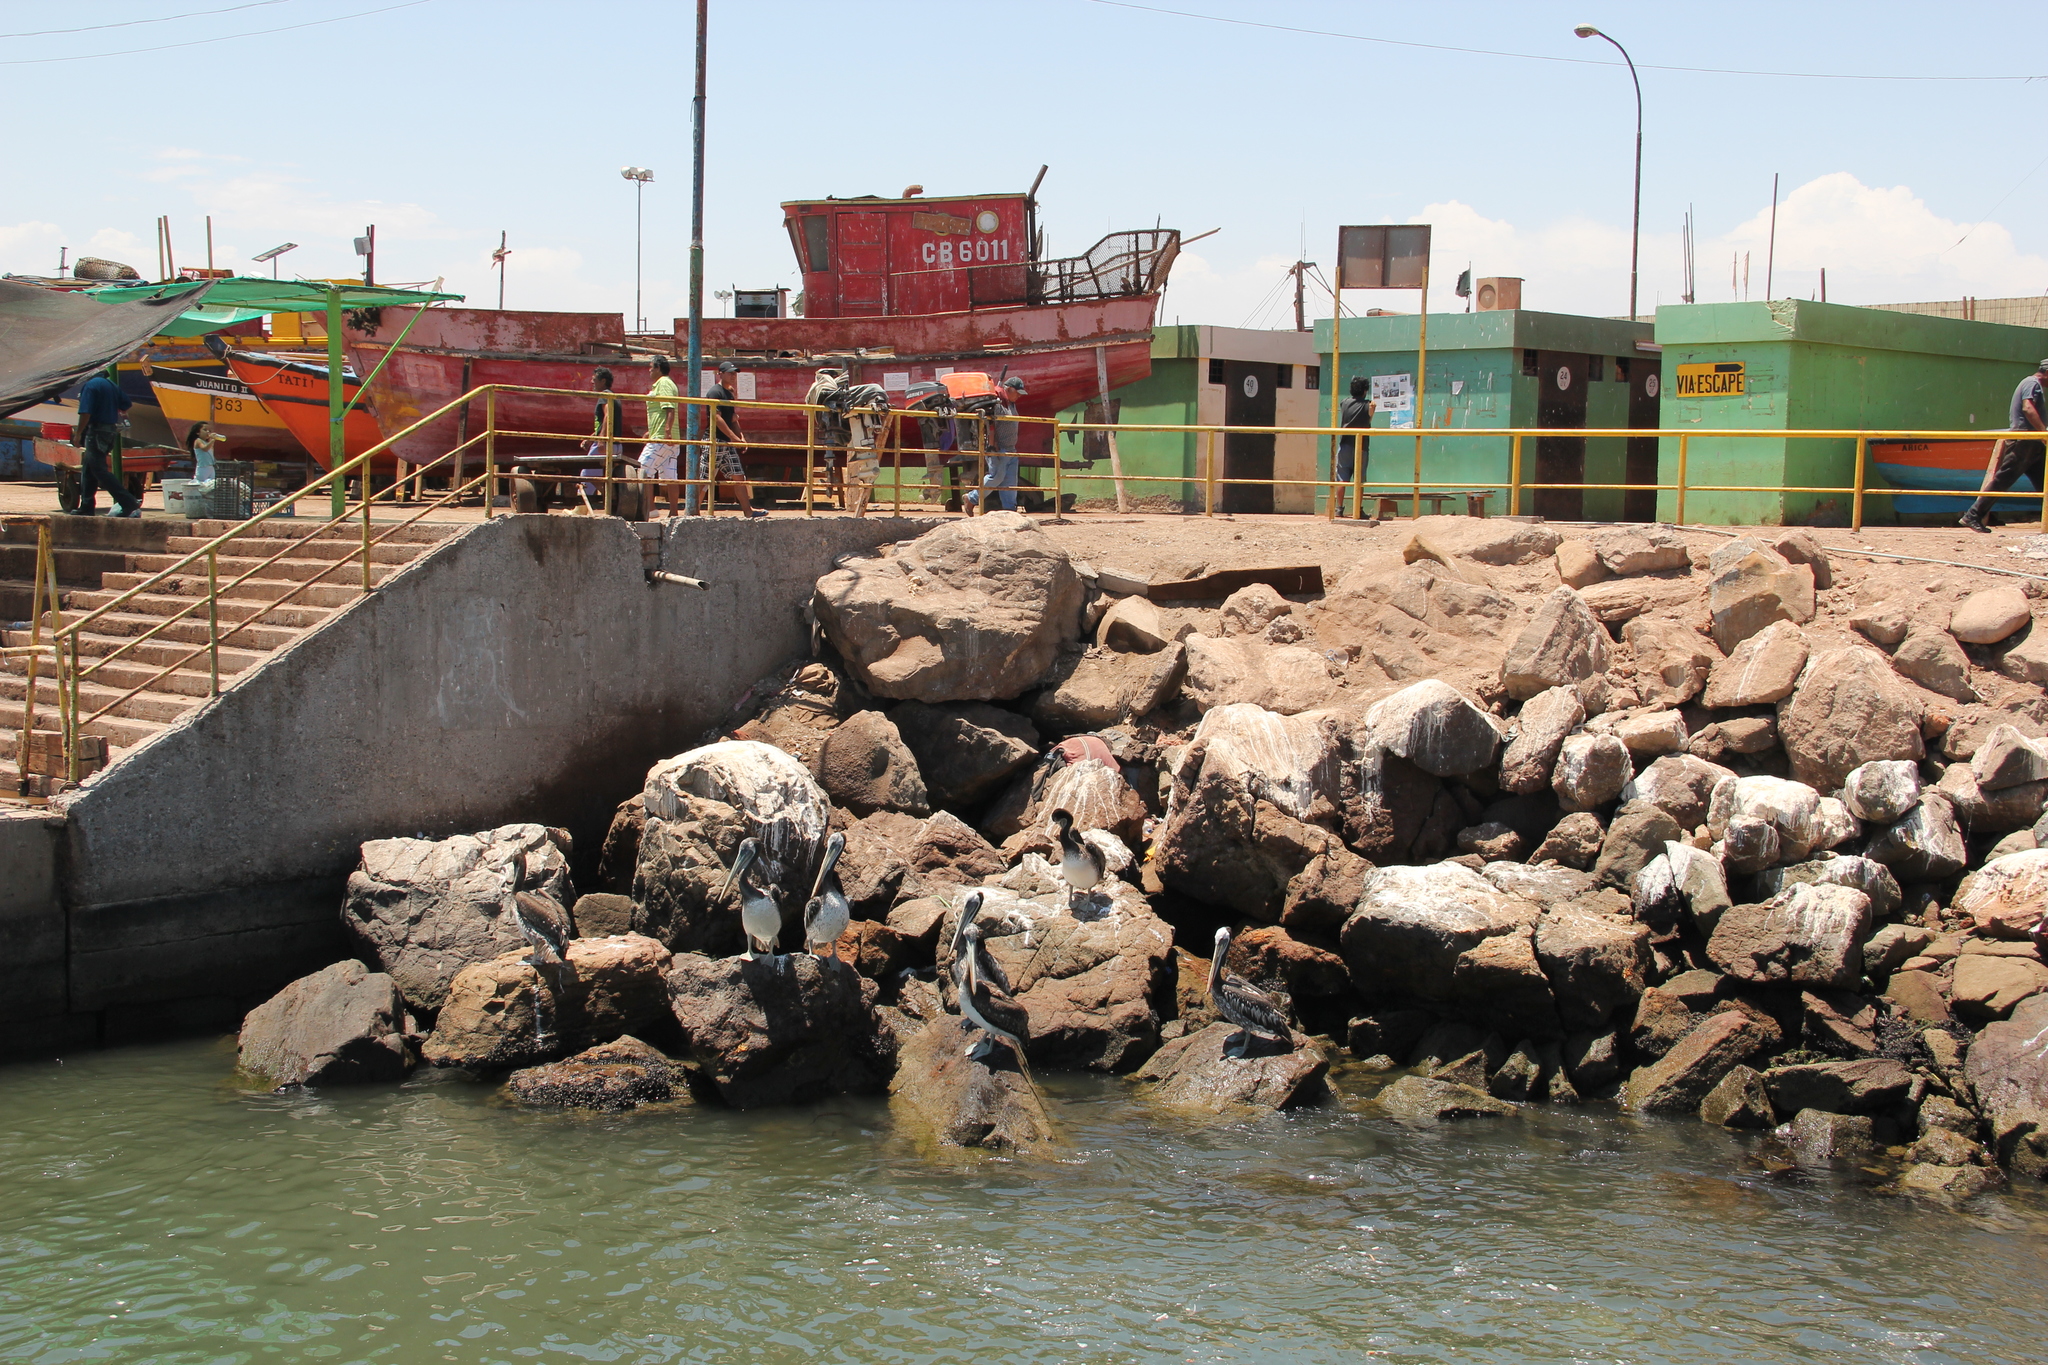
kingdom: Animalia
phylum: Chordata
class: Aves
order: Pelecaniformes
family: Pelecanidae
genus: Pelecanus
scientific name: Pelecanus thagus
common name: Peruvian pelican
